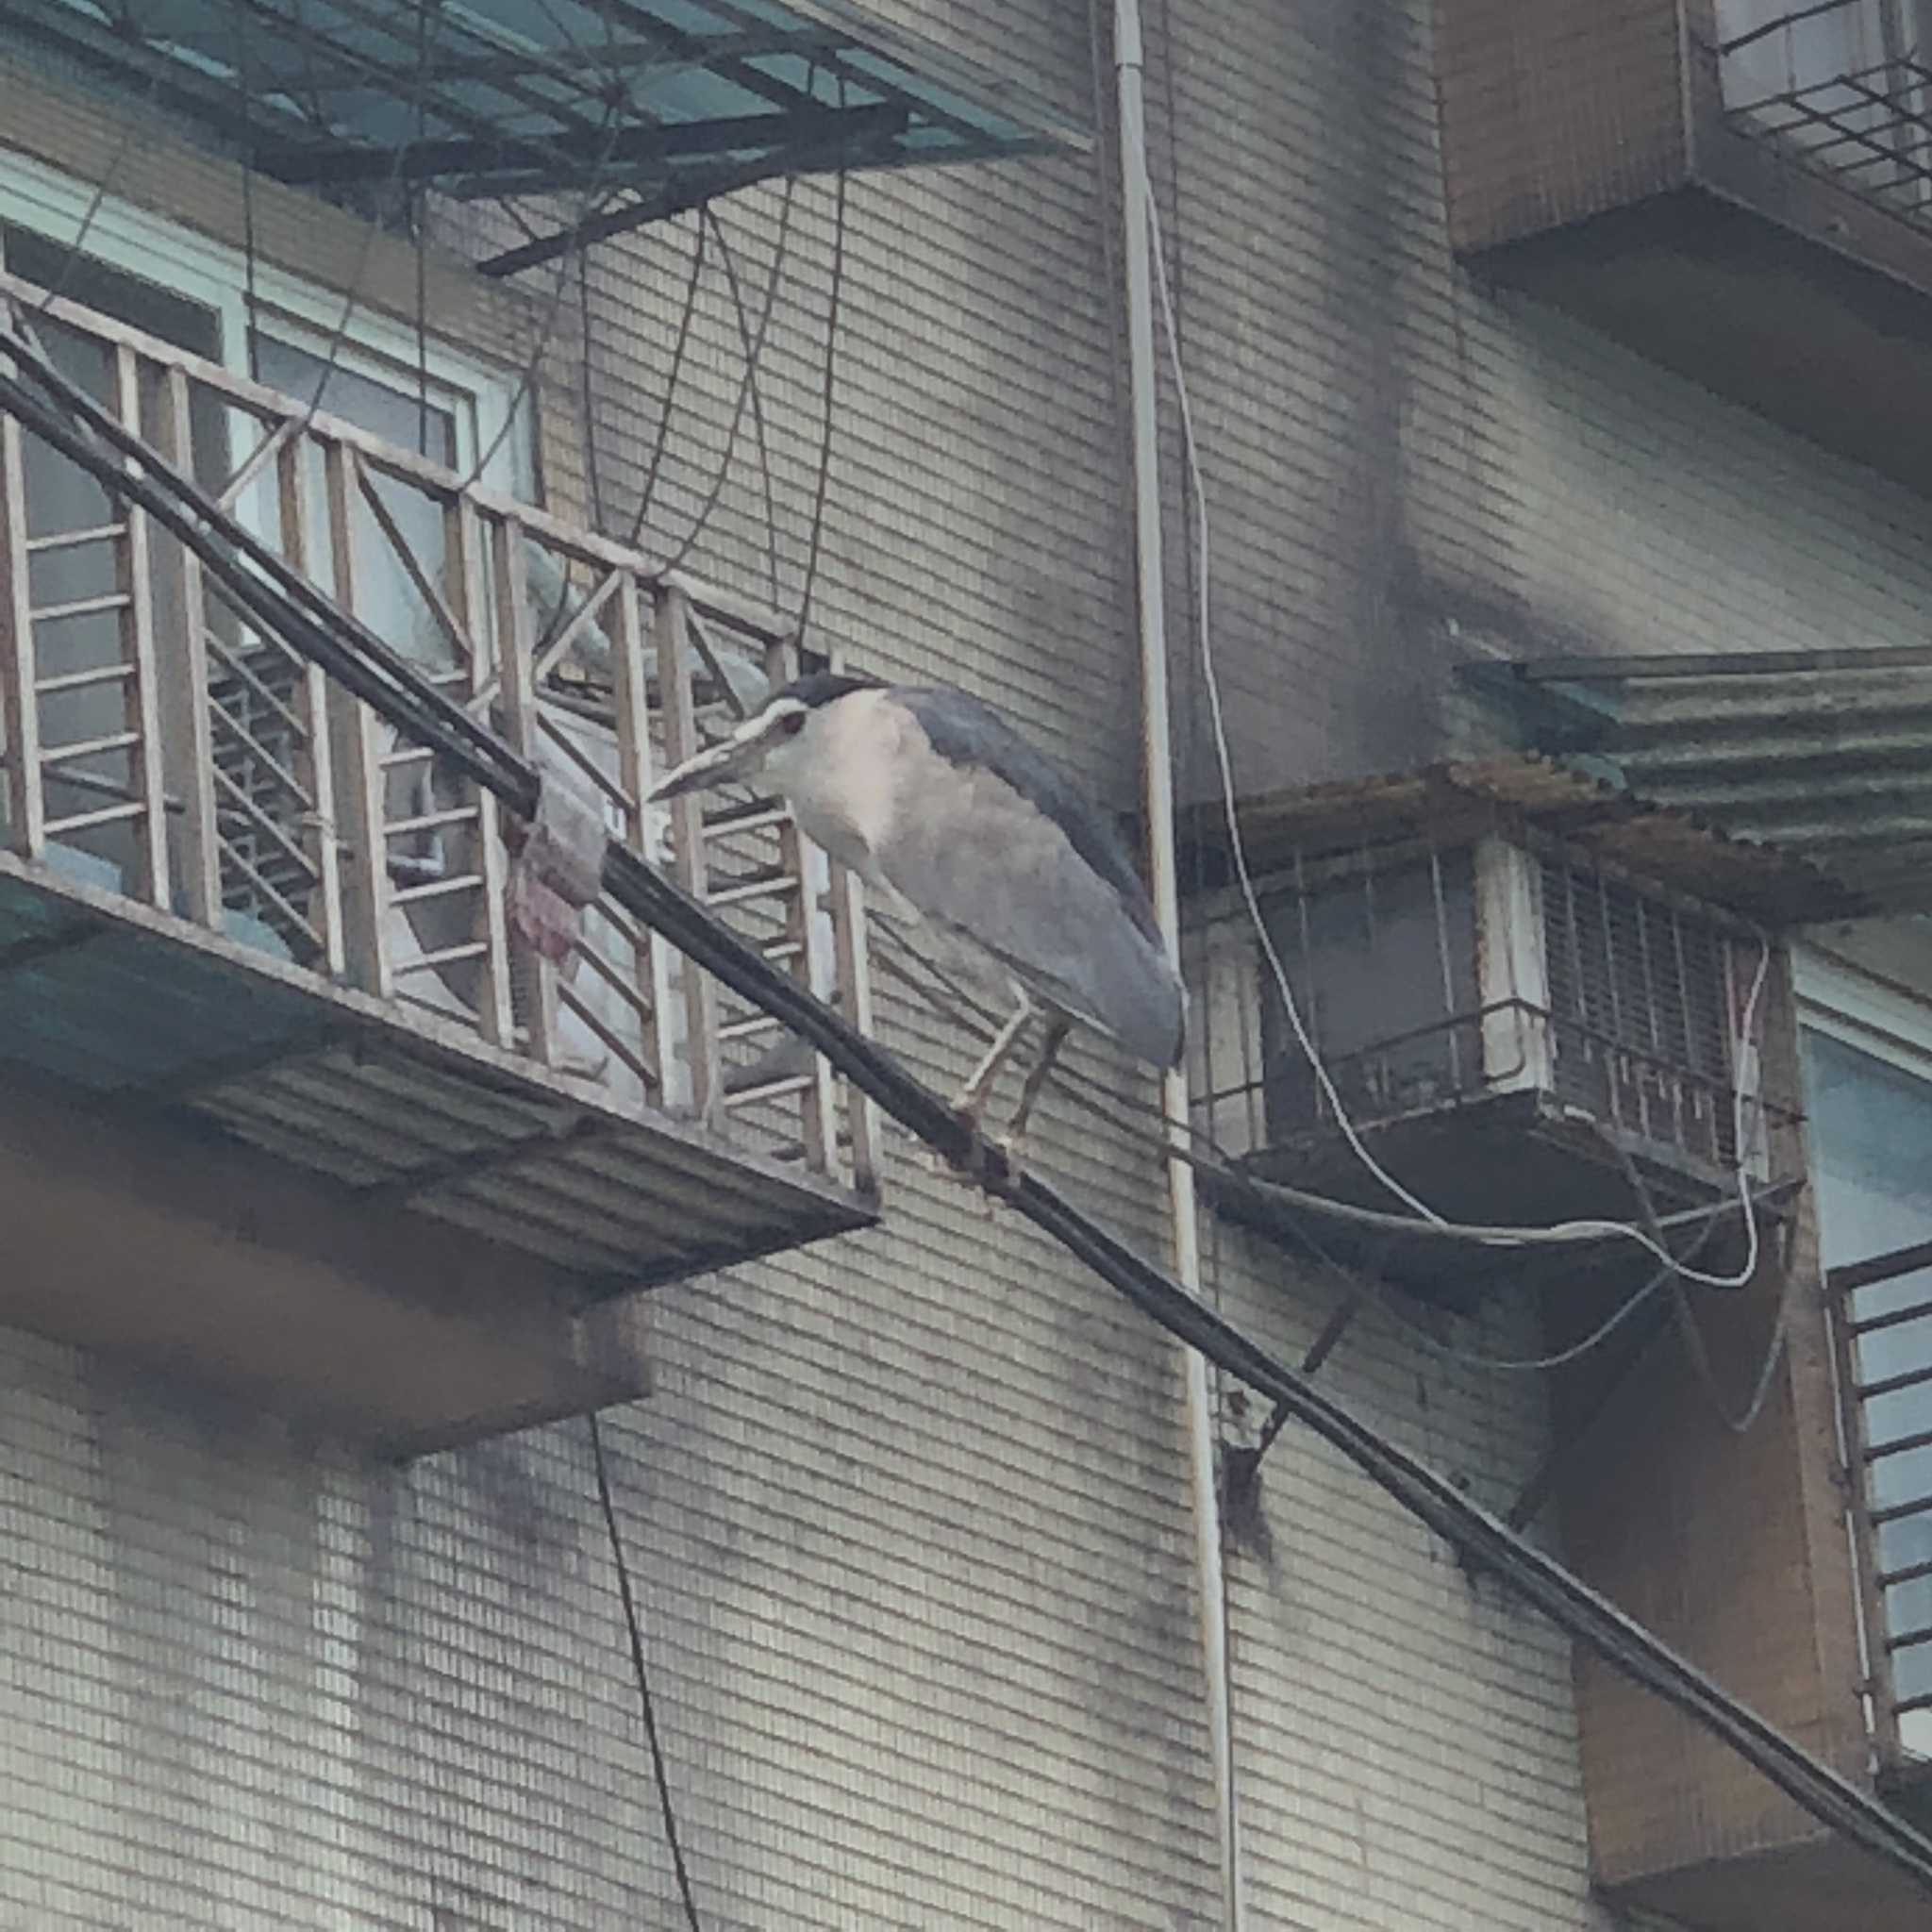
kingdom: Animalia
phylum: Chordata
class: Aves
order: Pelecaniformes
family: Ardeidae
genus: Nycticorax
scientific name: Nycticorax nycticorax
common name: Black-crowned night heron
